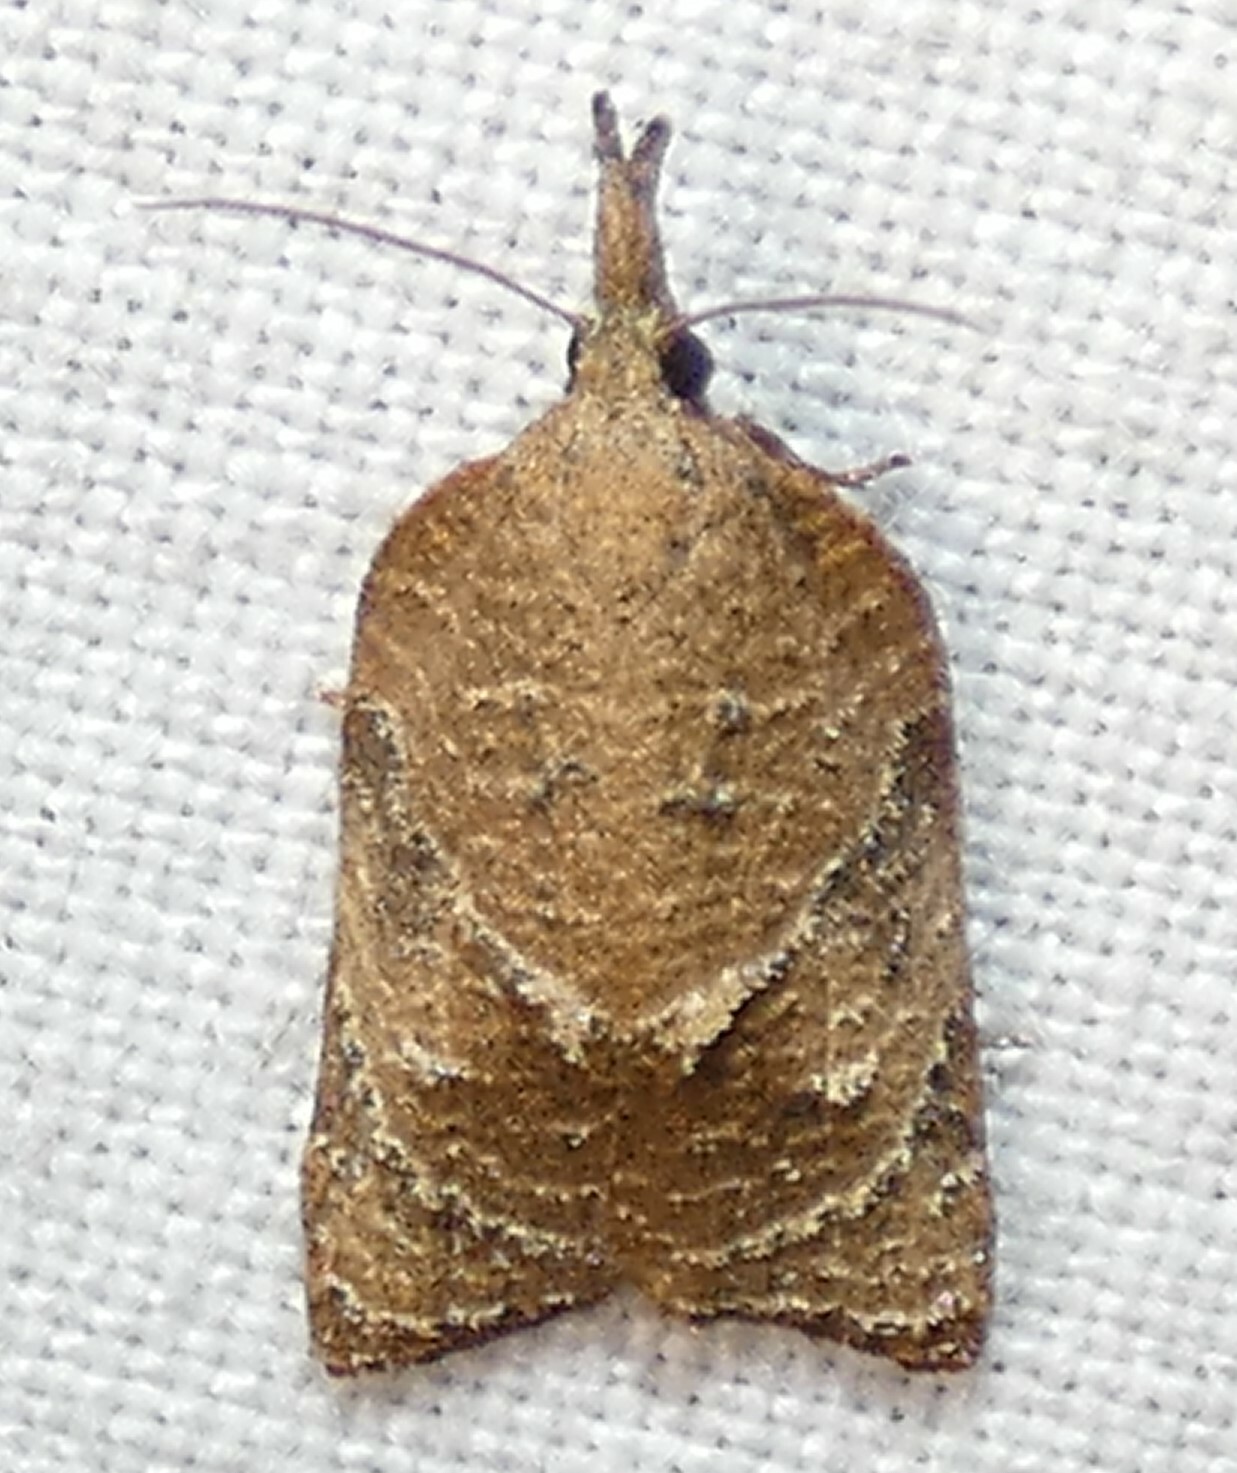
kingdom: Animalia
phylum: Arthropoda
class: Insecta
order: Lepidoptera
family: Tortricidae
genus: Platynota
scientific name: Platynota rostrana
